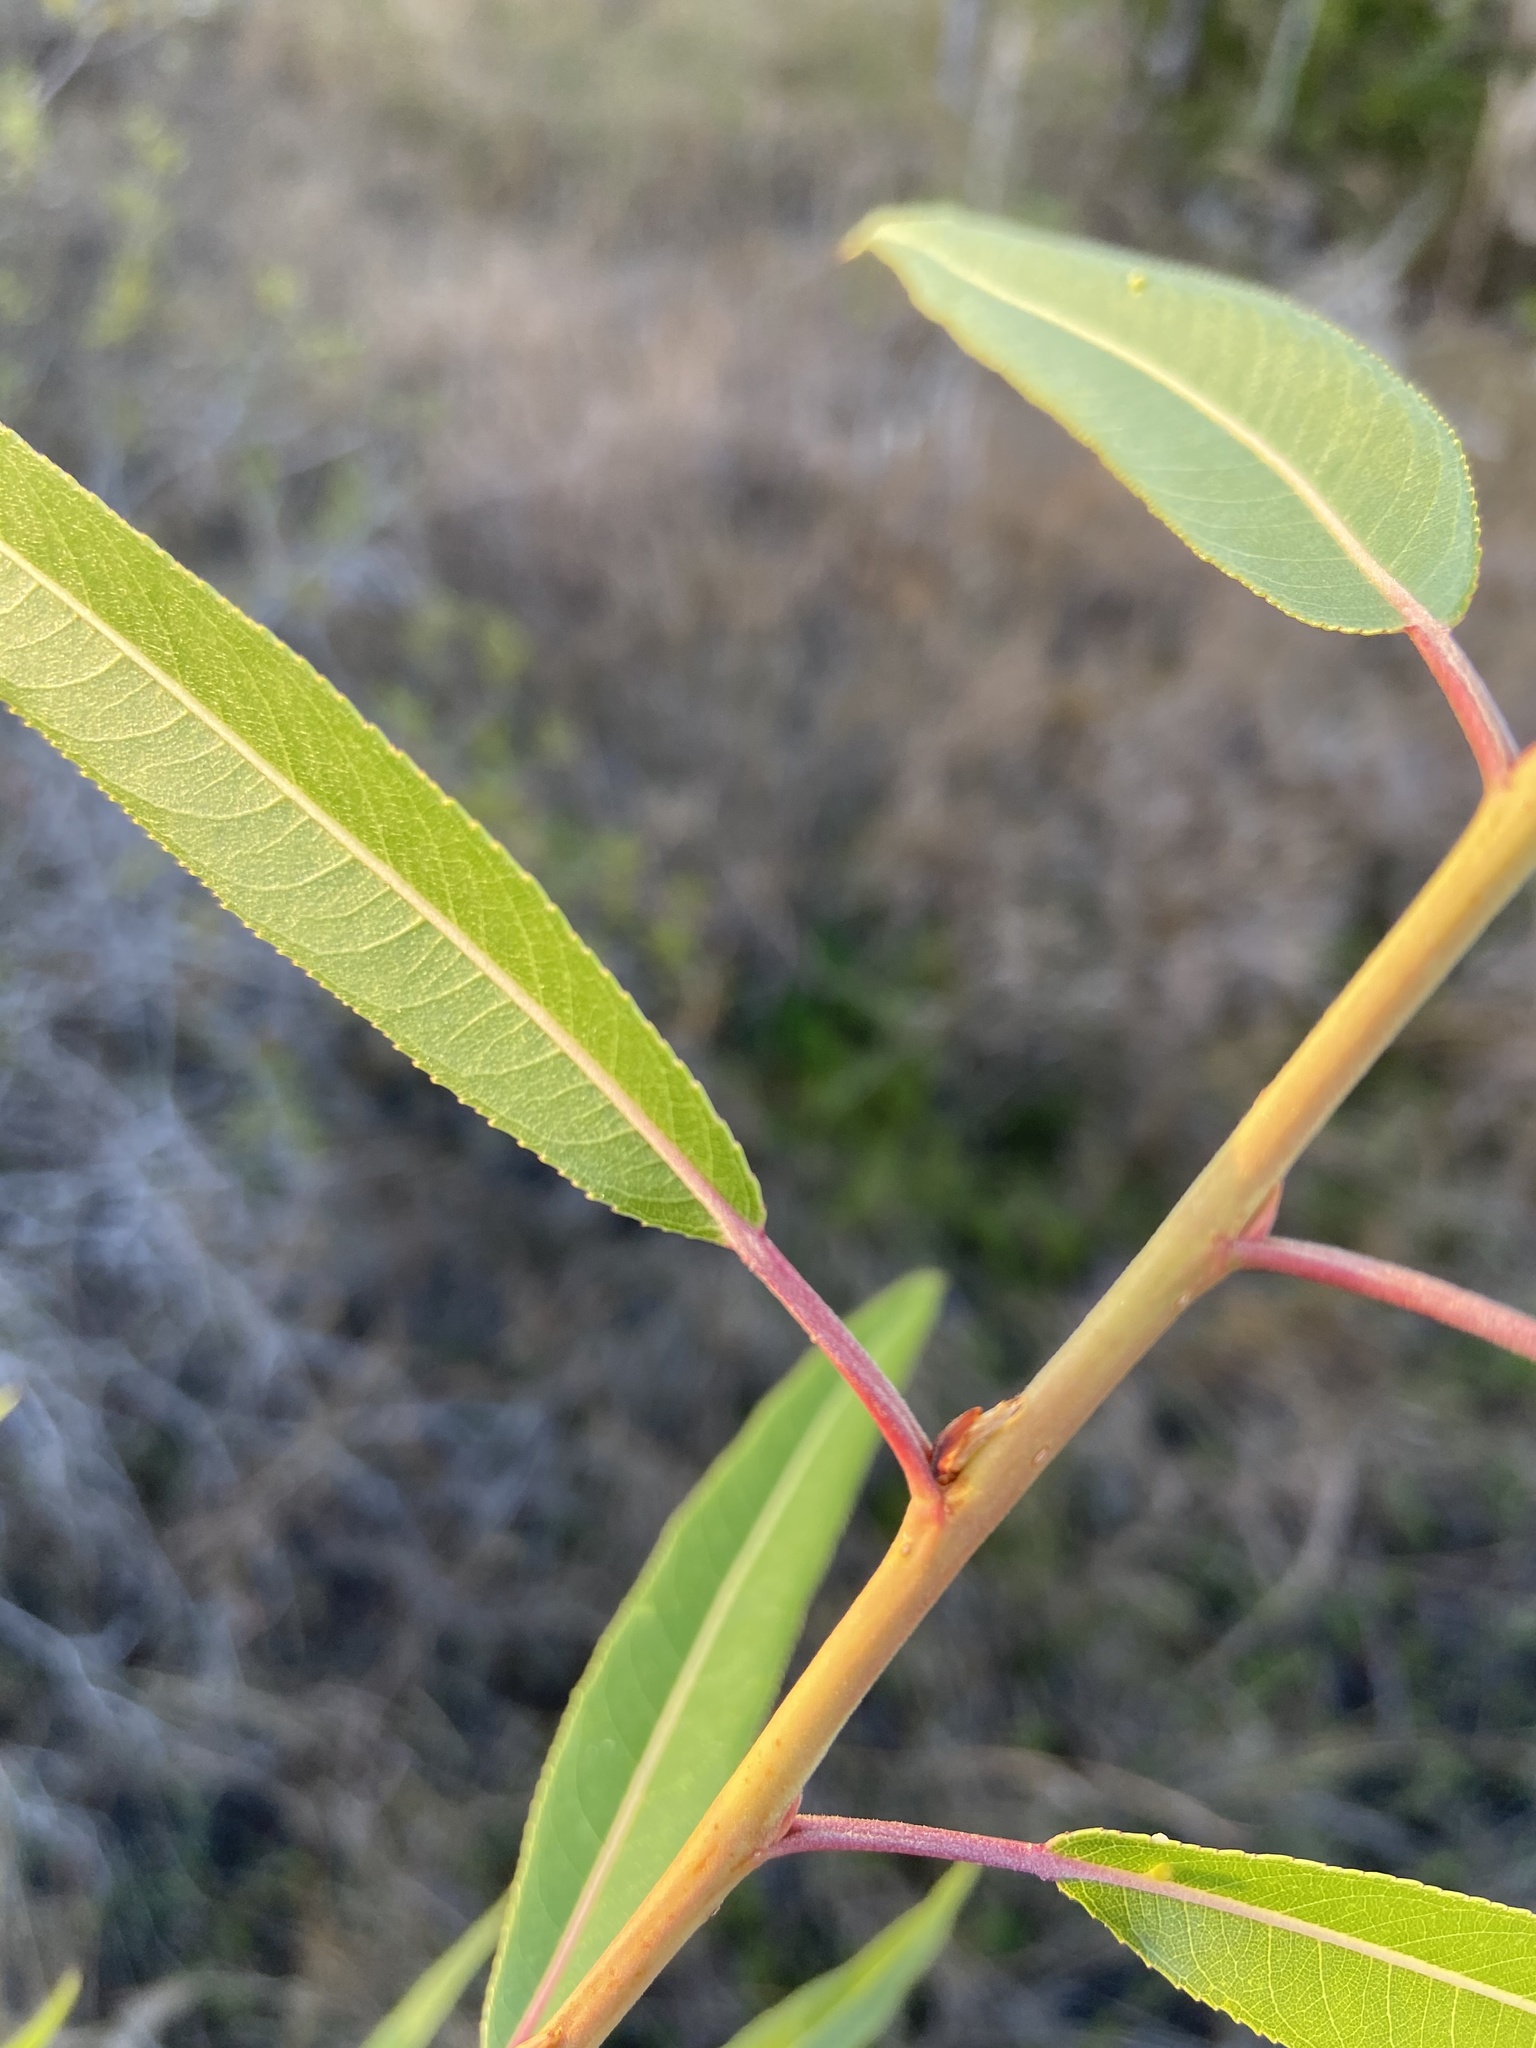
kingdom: Plantae
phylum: Tracheophyta
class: Magnoliopsida
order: Malpighiales
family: Salicaceae
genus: Salix
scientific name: Salix caroliniana
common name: Carolina willow
